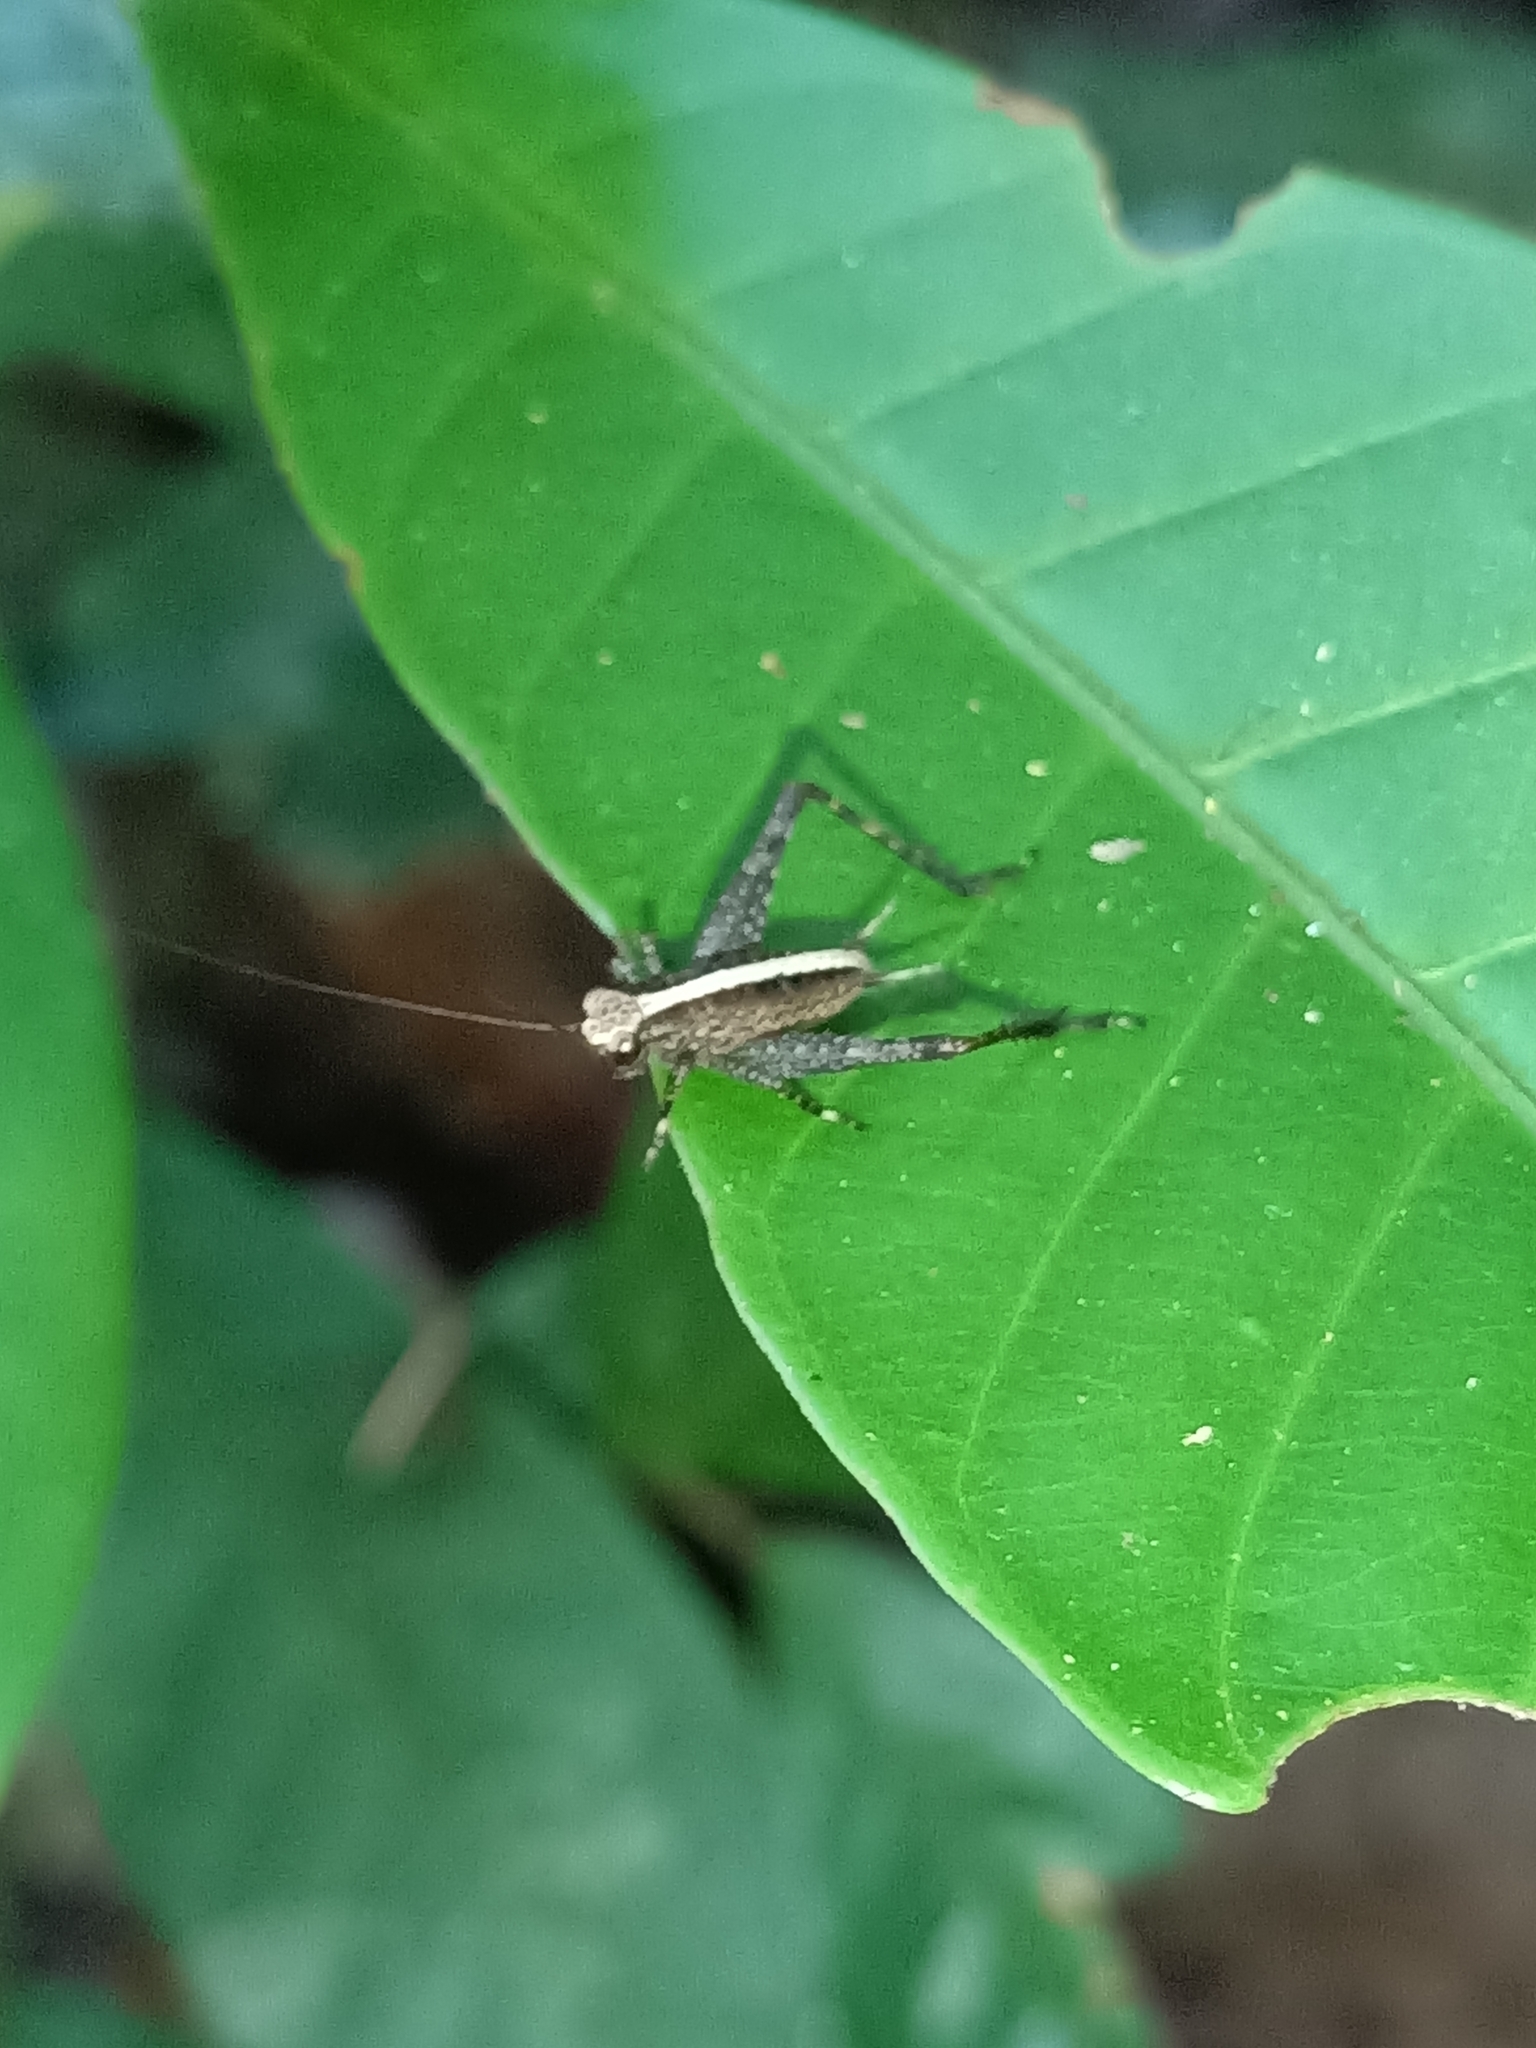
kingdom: Animalia
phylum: Arthropoda
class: Insecta
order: Orthoptera
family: Gryllidae
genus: Eneoptera
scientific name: Eneoptera
